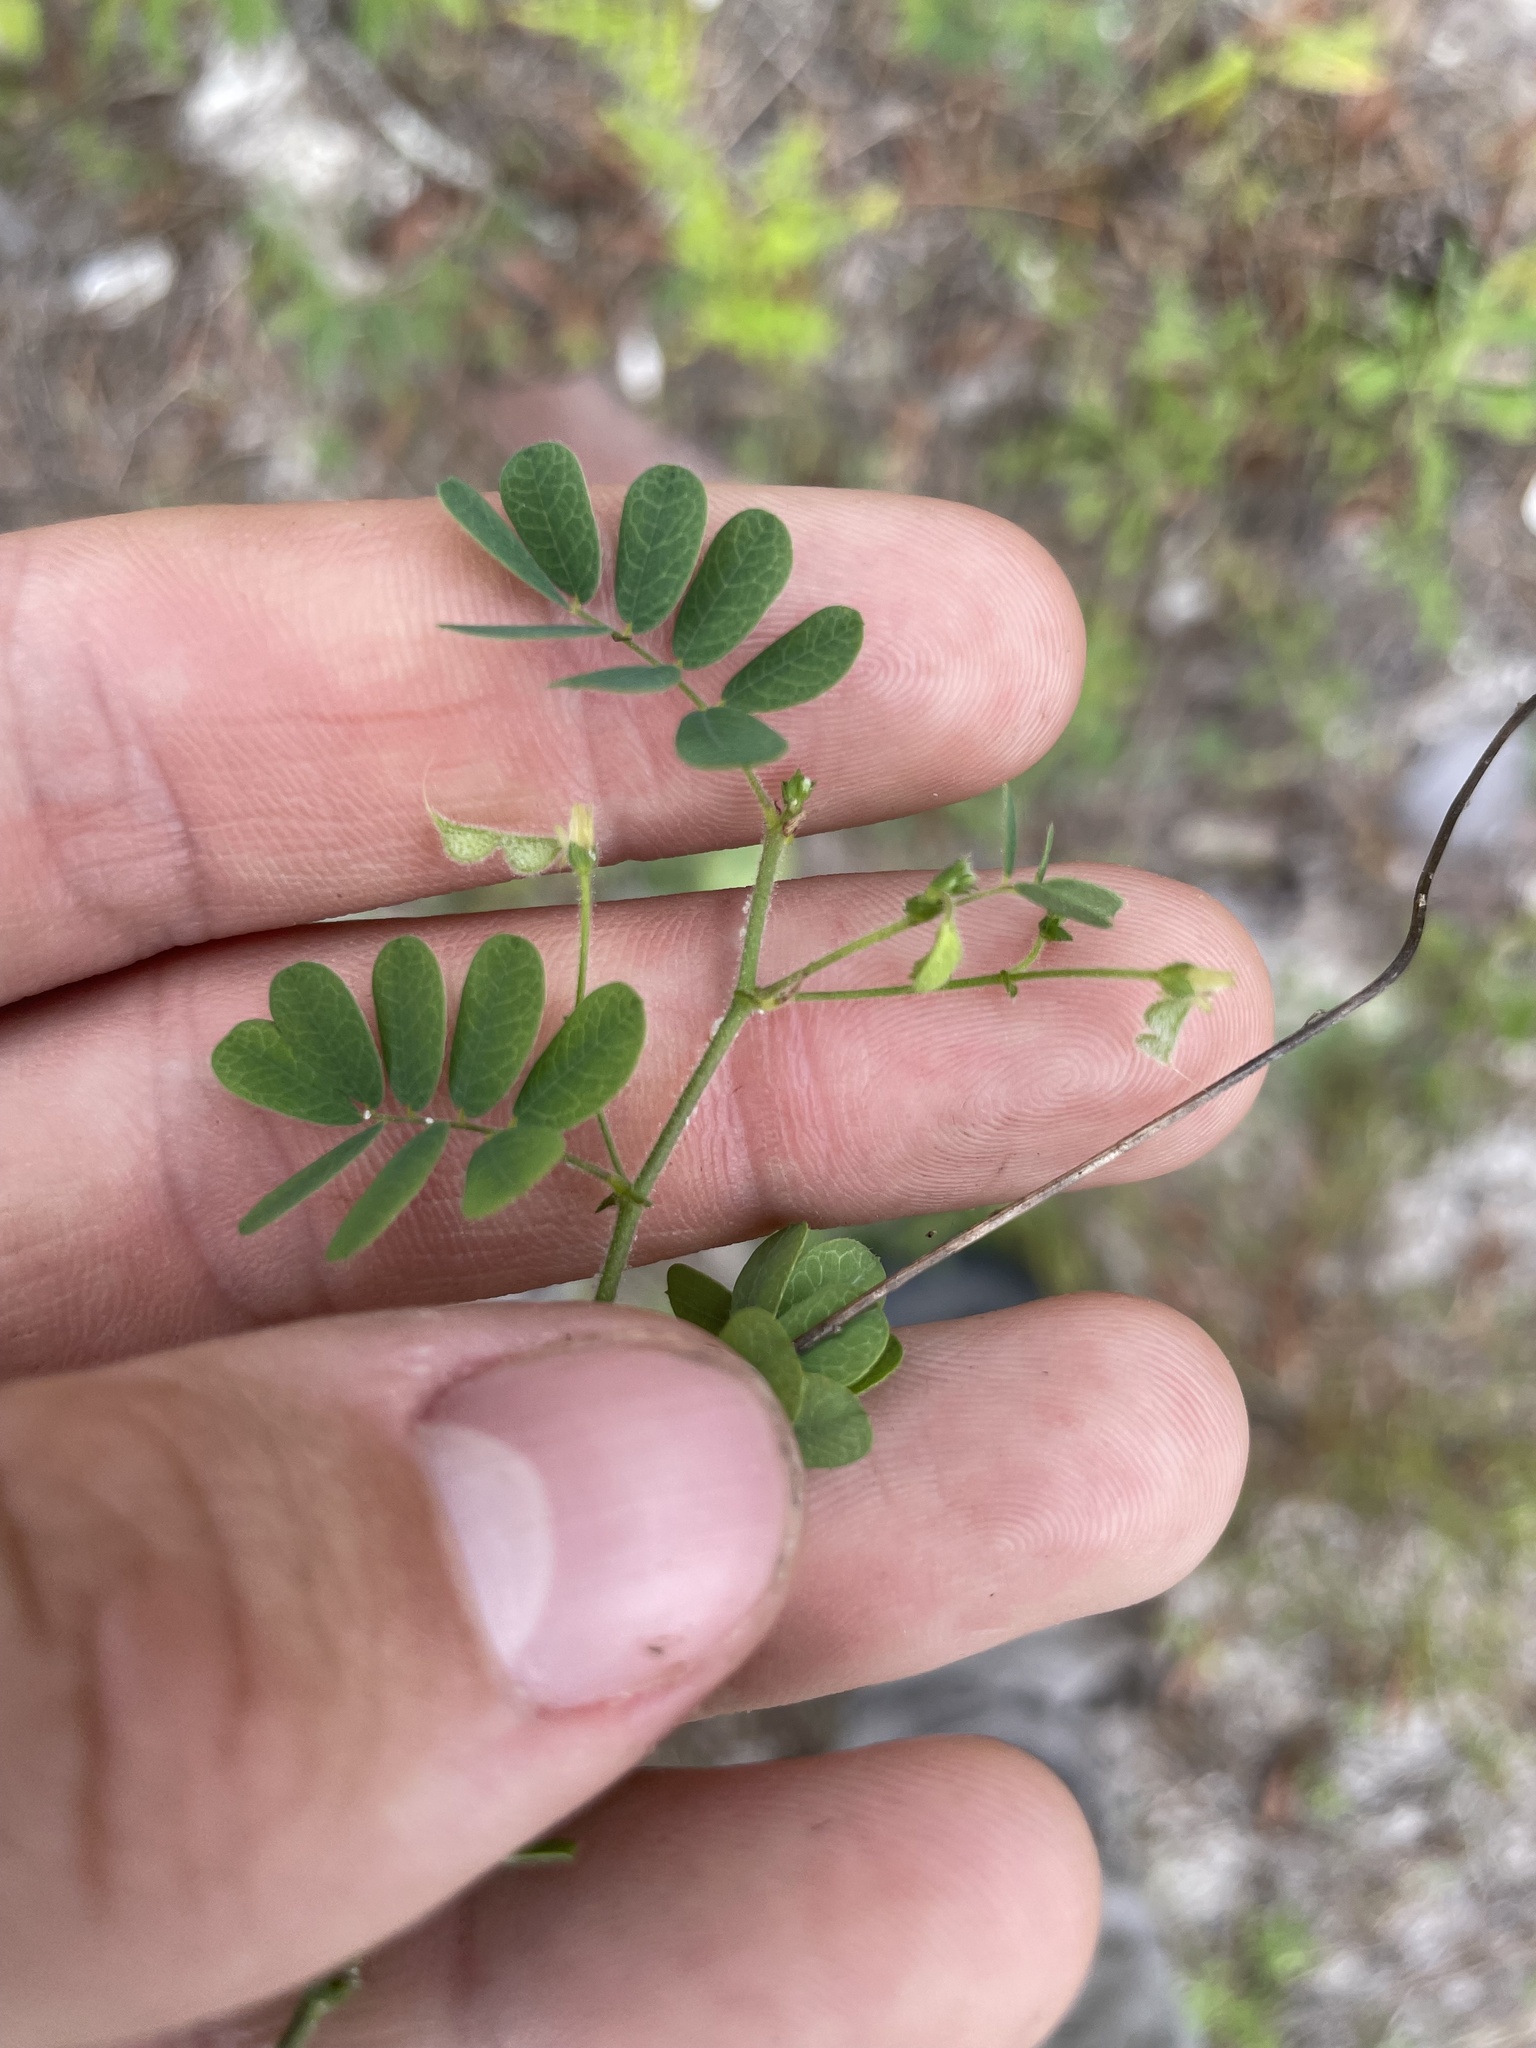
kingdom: Plantae
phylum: Tracheophyta
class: Magnoliopsida
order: Fabales
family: Fabaceae
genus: Ctenodon
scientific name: Ctenodon viscidulus
